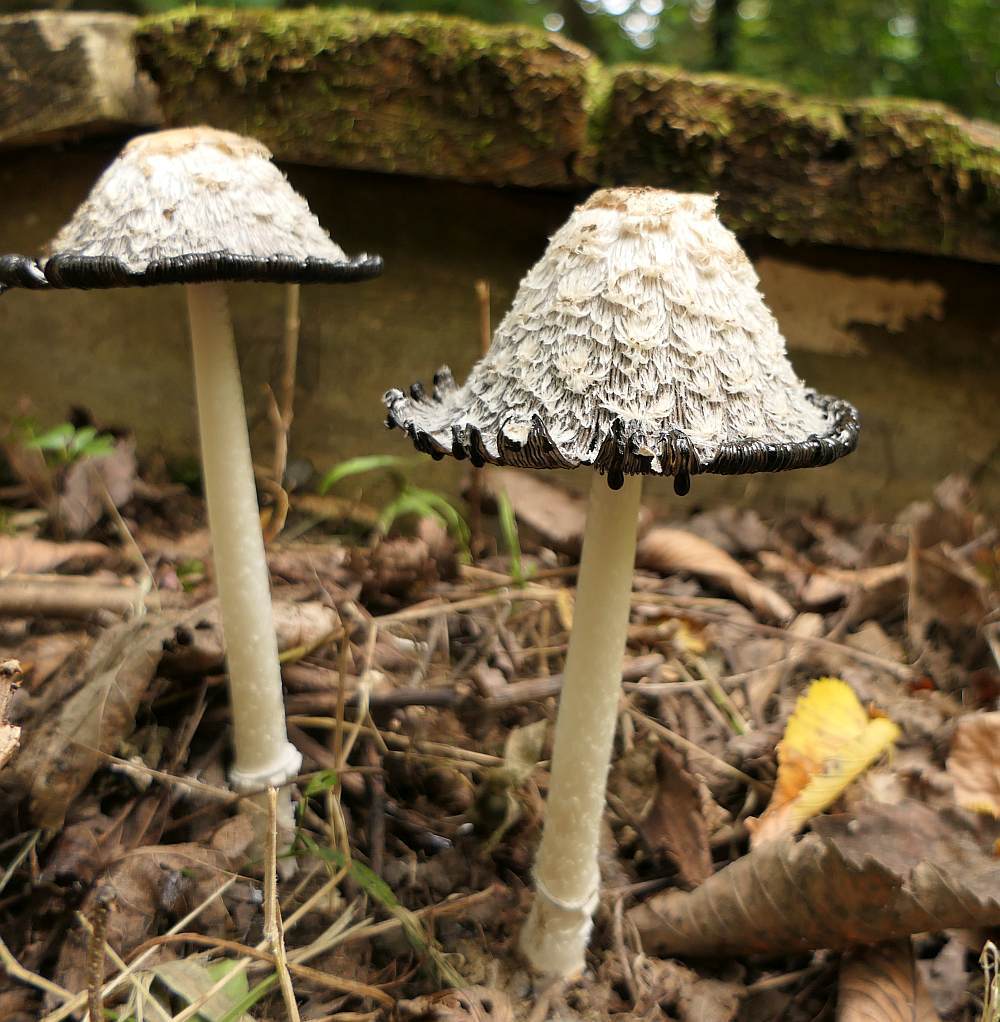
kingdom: Fungi
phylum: Basidiomycota
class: Agaricomycetes
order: Agaricales
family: Agaricaceae
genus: Coprinus
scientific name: Coprinus comatus
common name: Lawyer's wig
